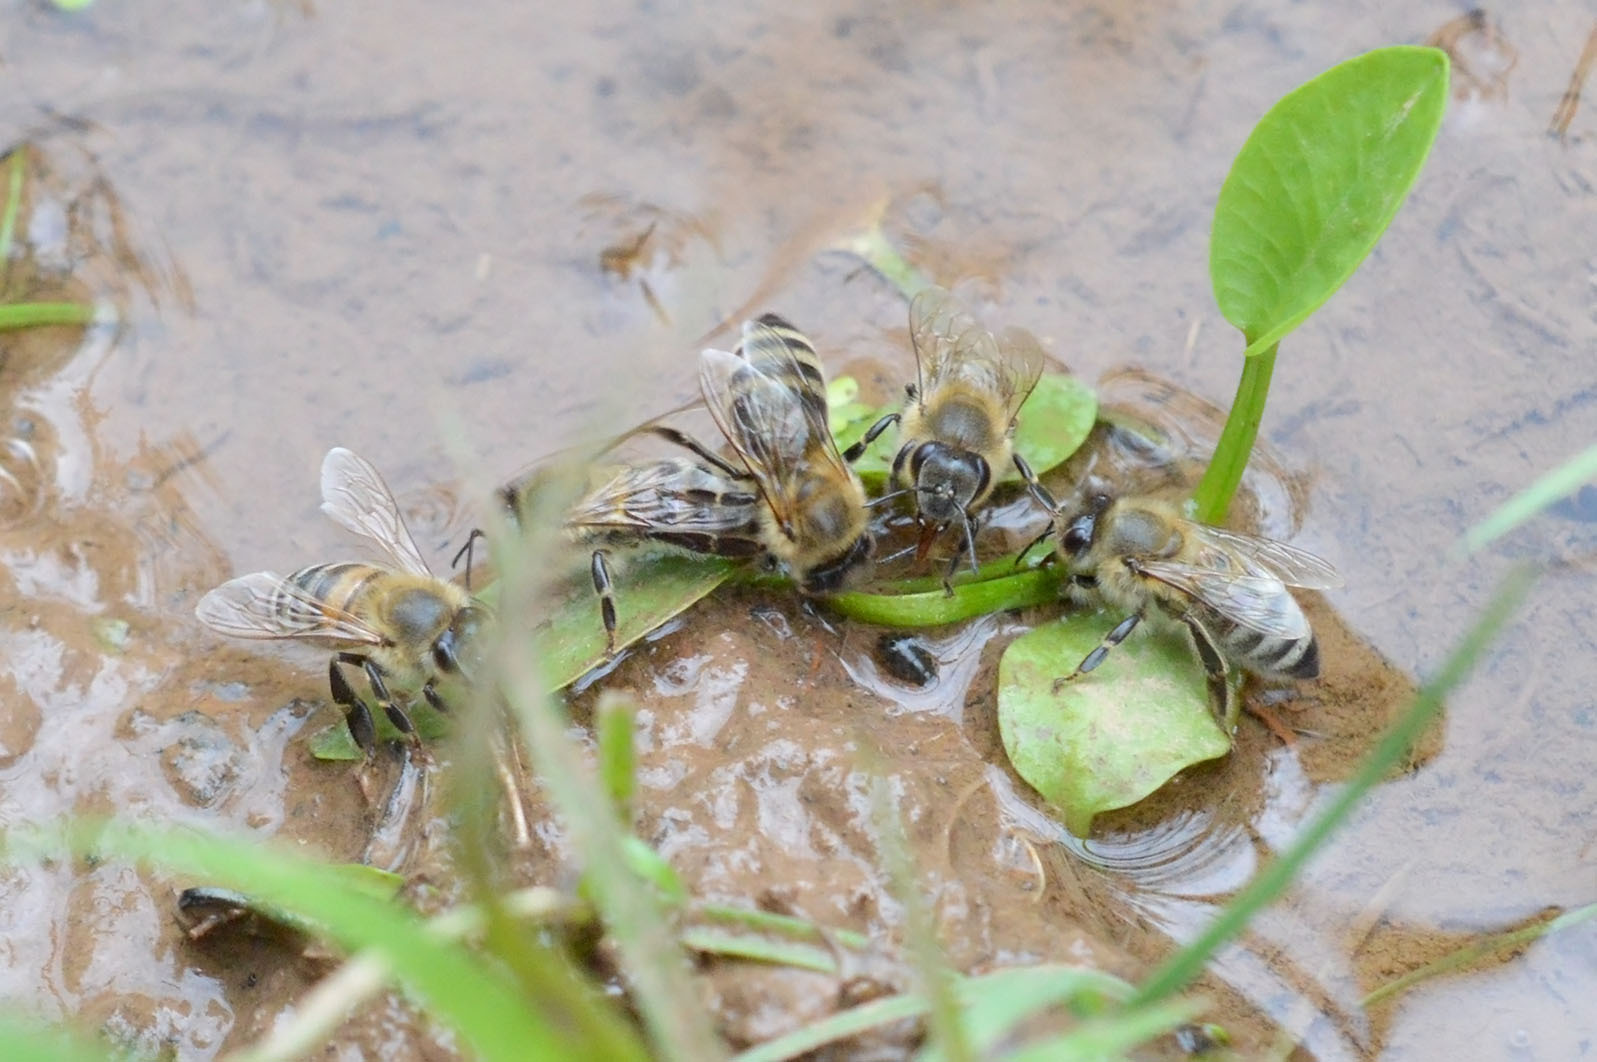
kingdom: Animalia
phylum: Arthropoda
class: Insecta
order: Hymenoptera
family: Apidae
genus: Apis
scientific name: Apis mellifera
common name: Honey bee
